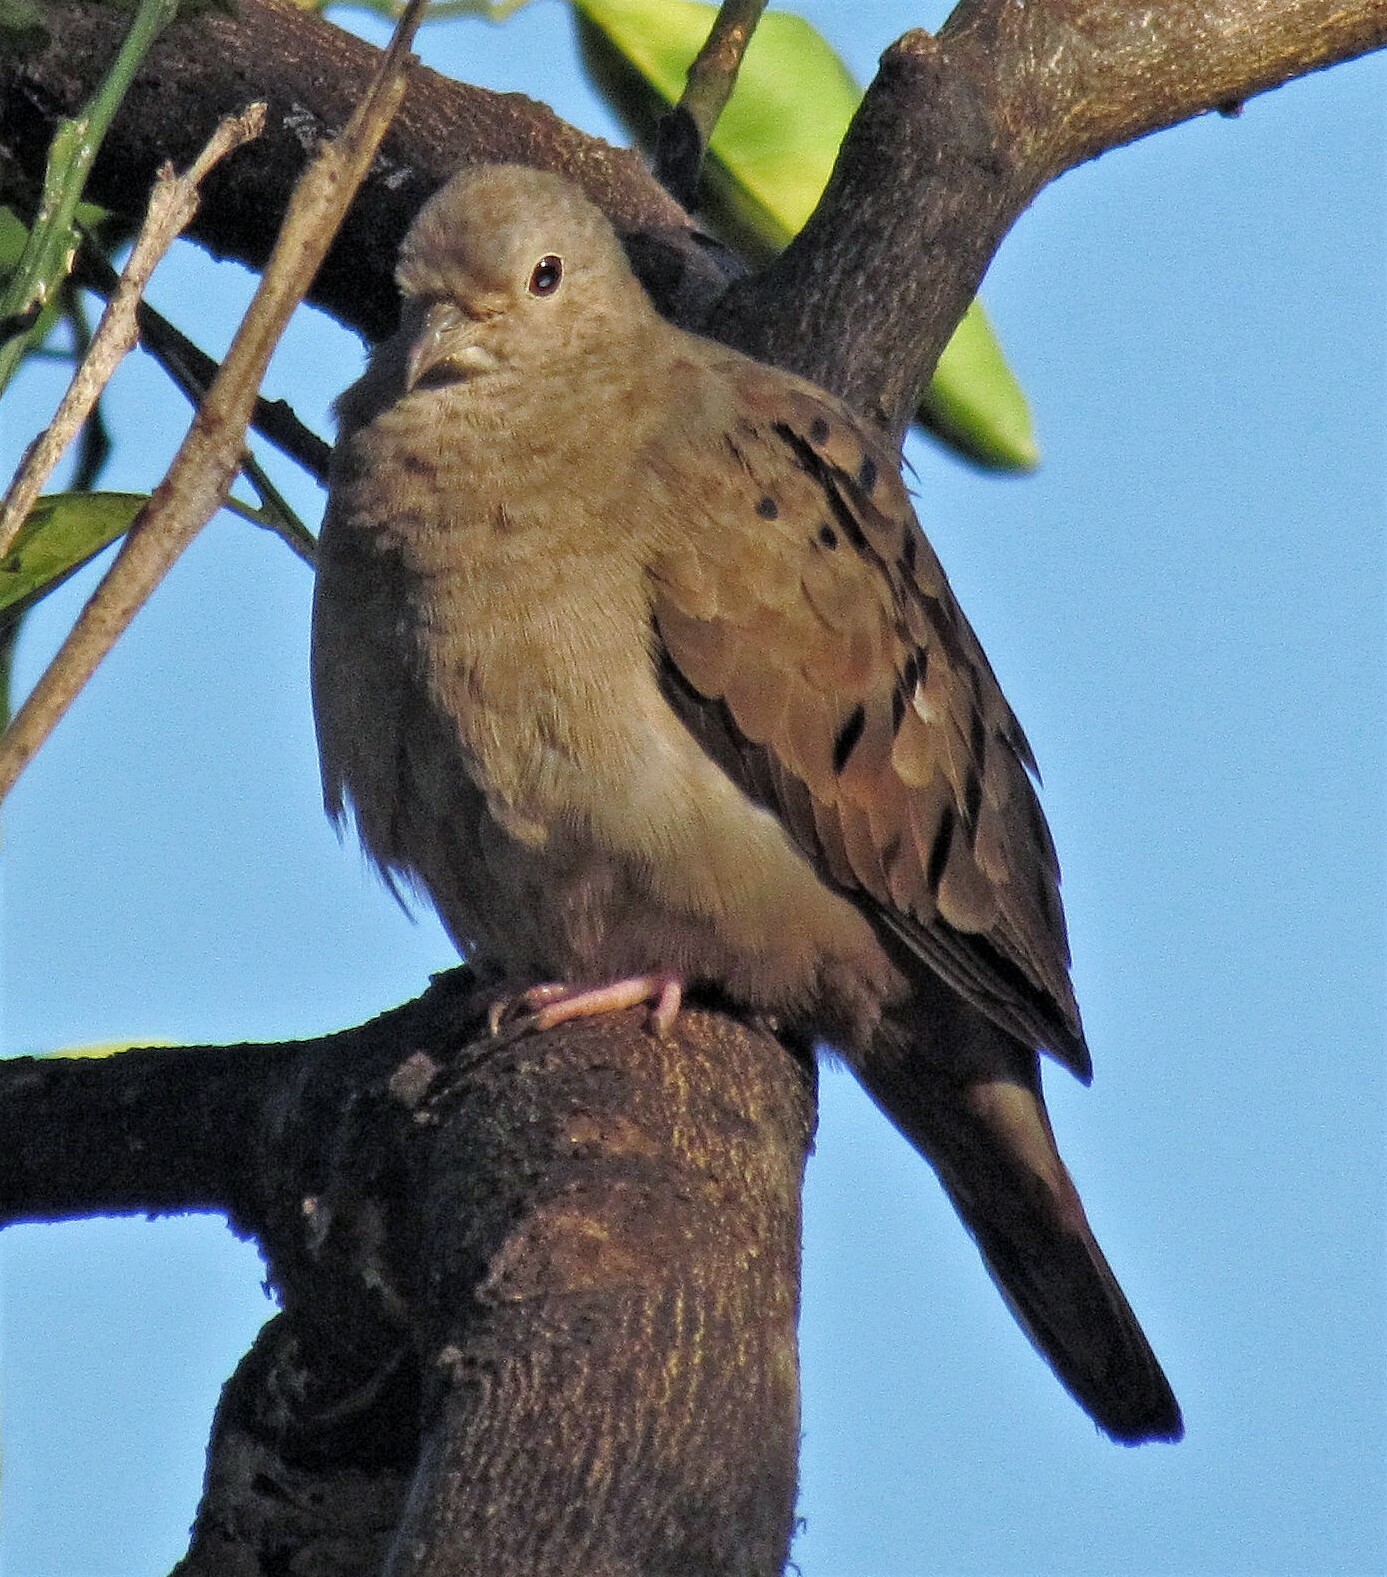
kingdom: Animalia
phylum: Chordata
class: Aves
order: Columbiformes
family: Columbidae
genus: Columbina
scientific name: Columbina talpacoti
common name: Ruddy ground dove
